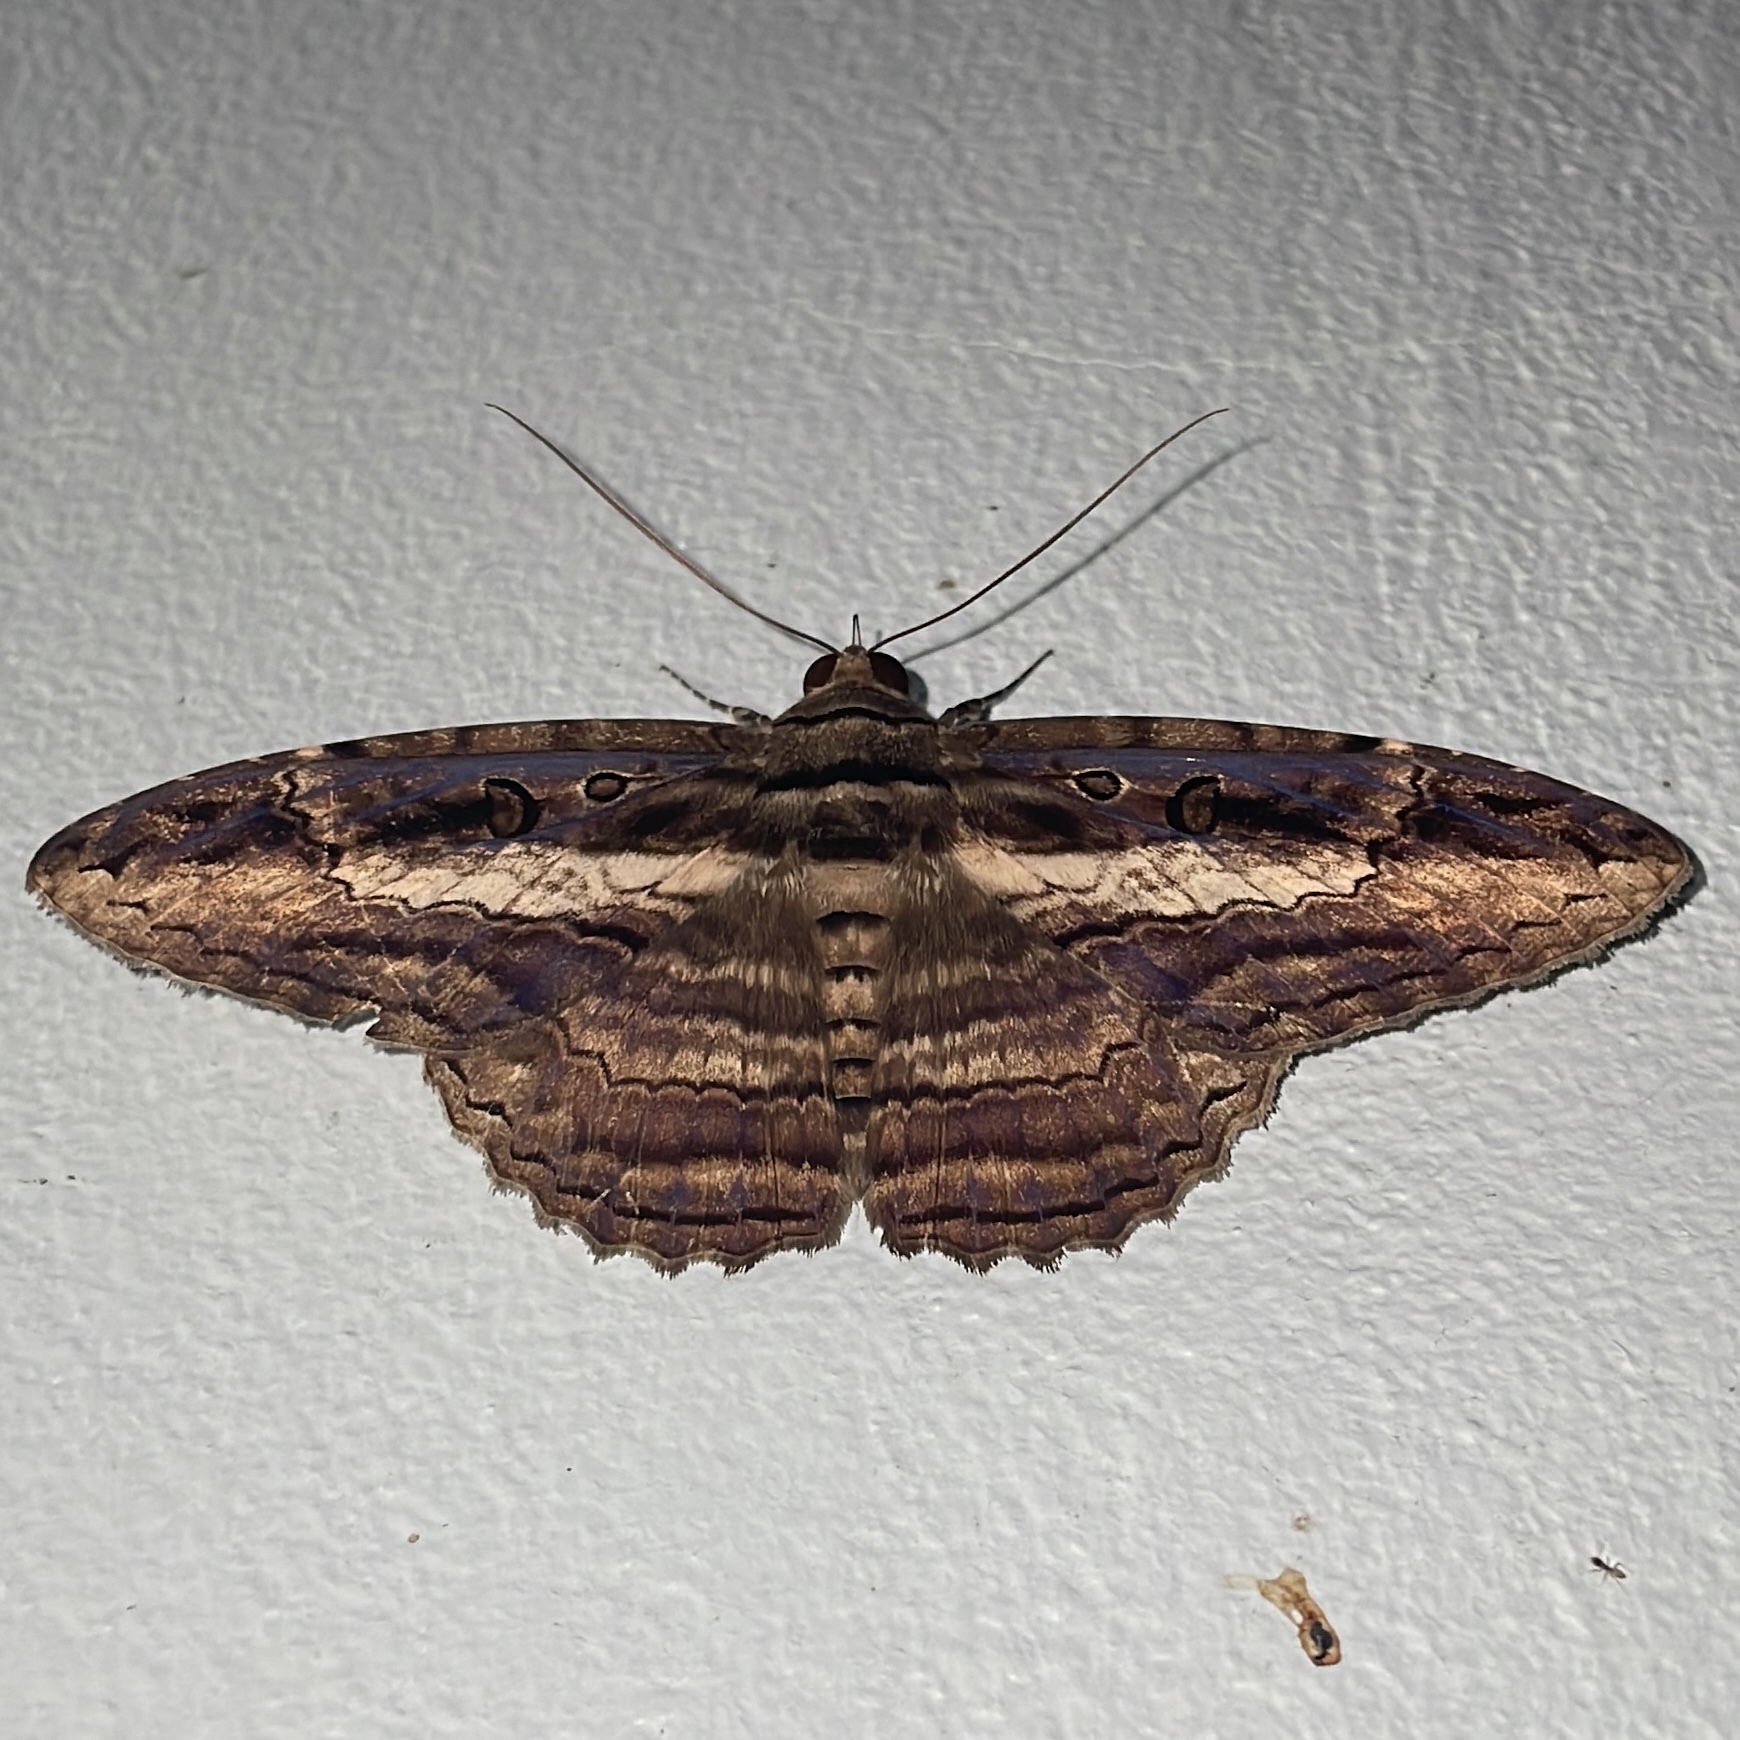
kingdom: Animalia
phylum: Arthropoda
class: Insecta
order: Lepidoptera
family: Erebidae
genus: Feigeria
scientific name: Feigeria buteo
